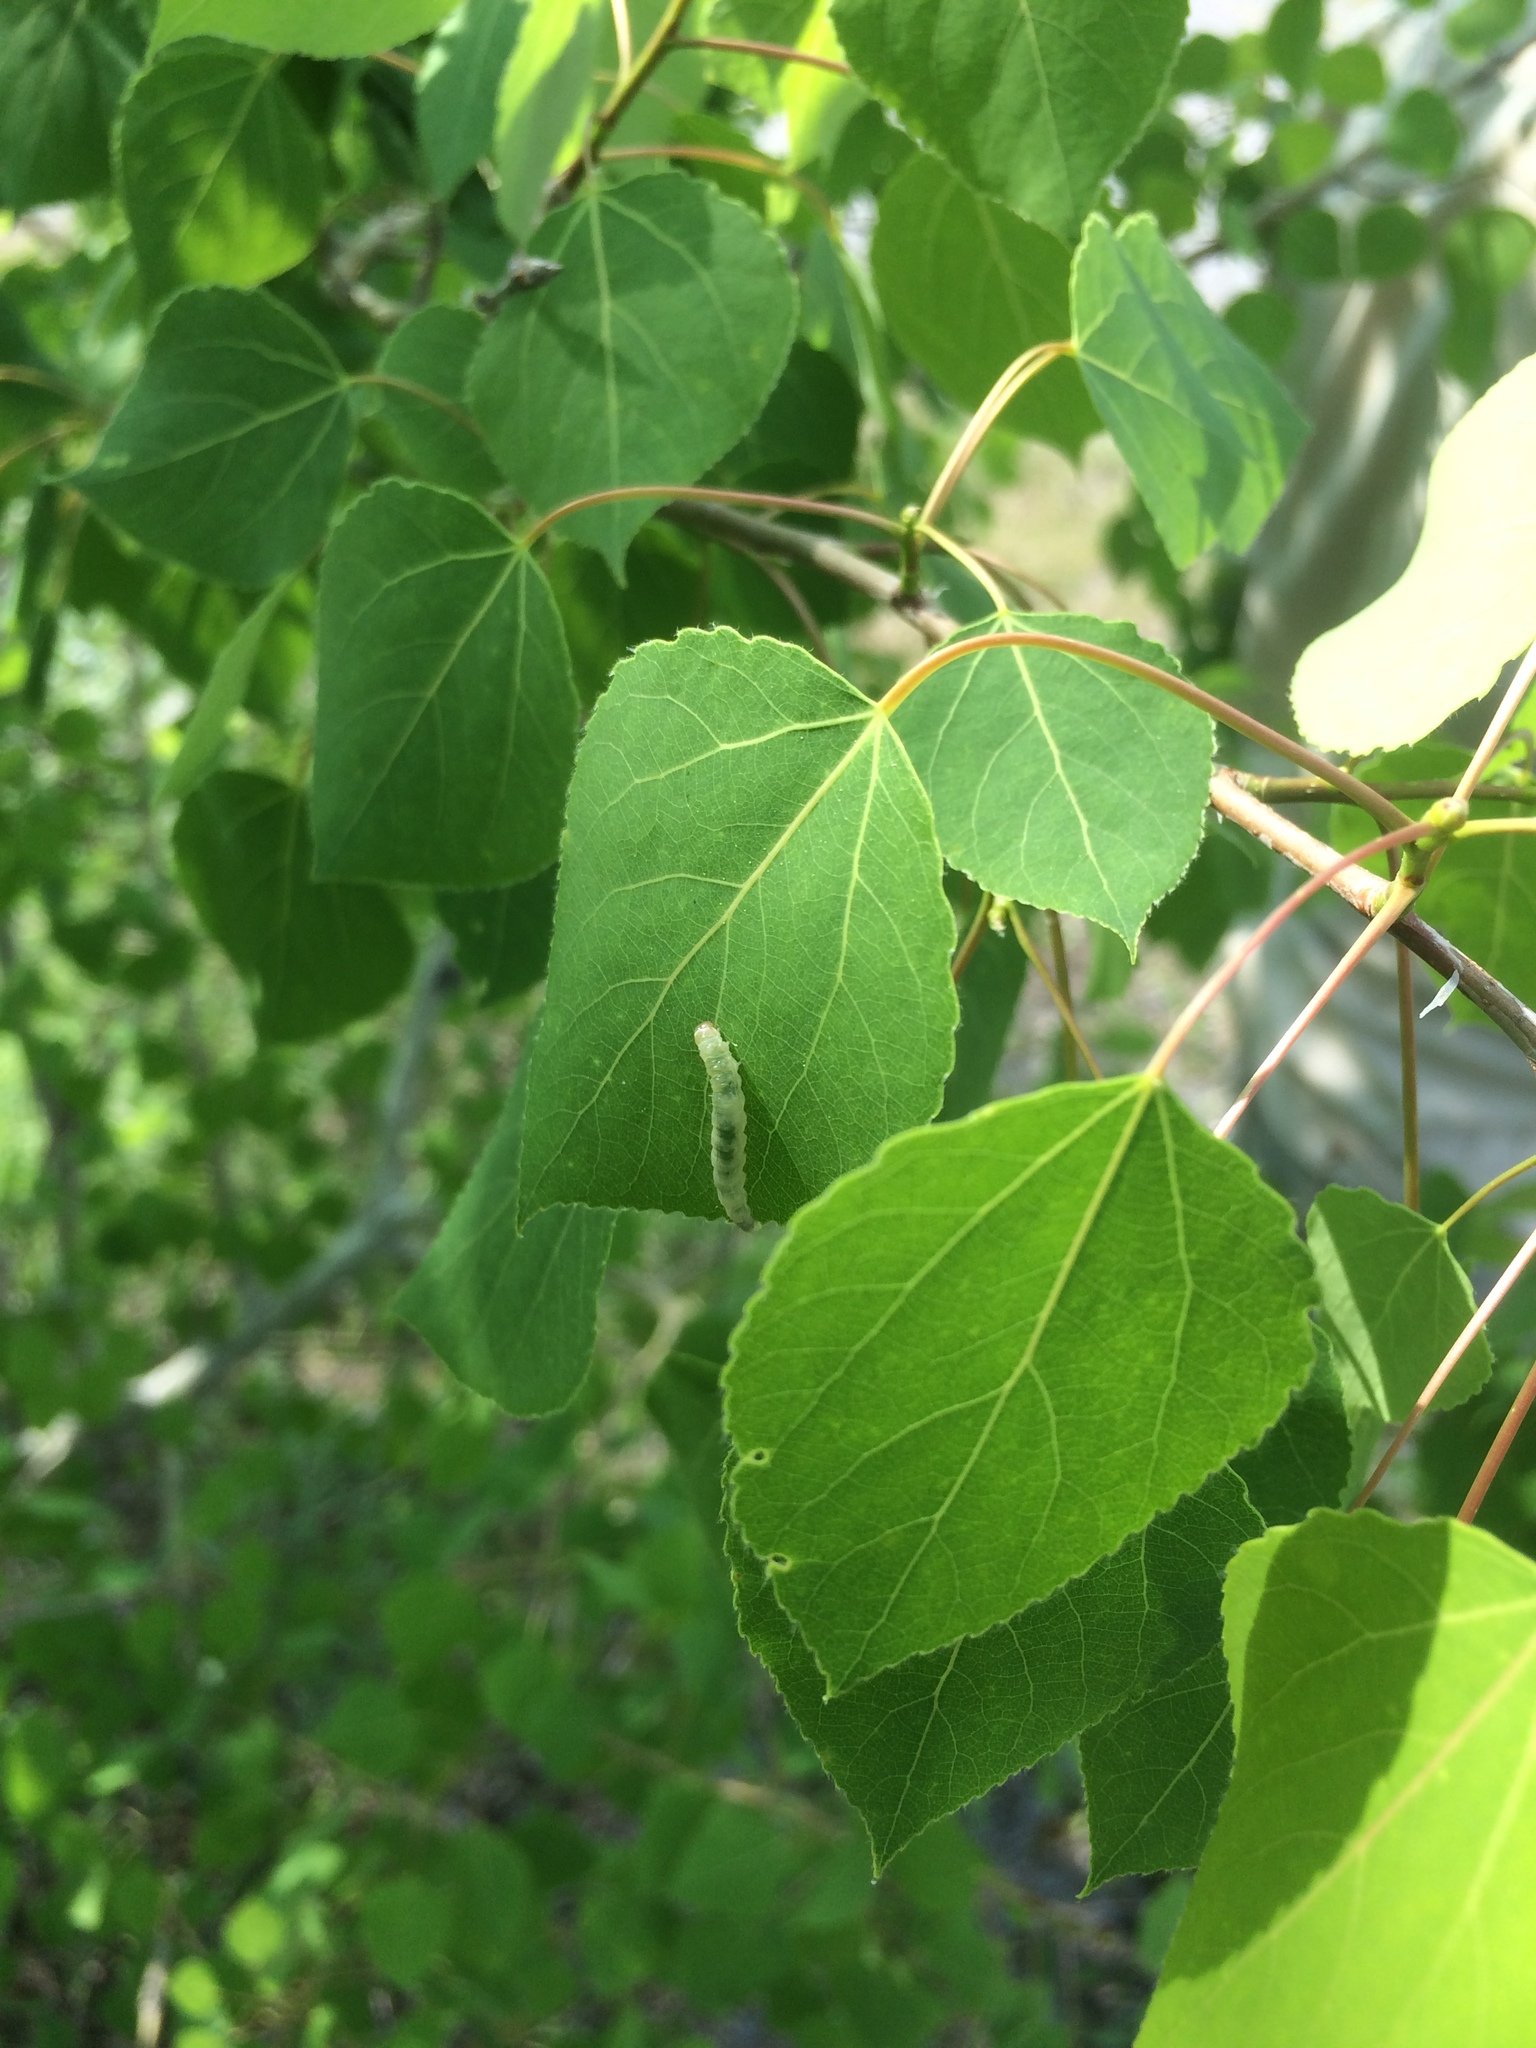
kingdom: Plantae
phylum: Tracheophyta
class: Magnoliopsida
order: Malpighiales
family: Salicaceae
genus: Populus
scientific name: Populus tremuloides
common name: Quaking aspen
